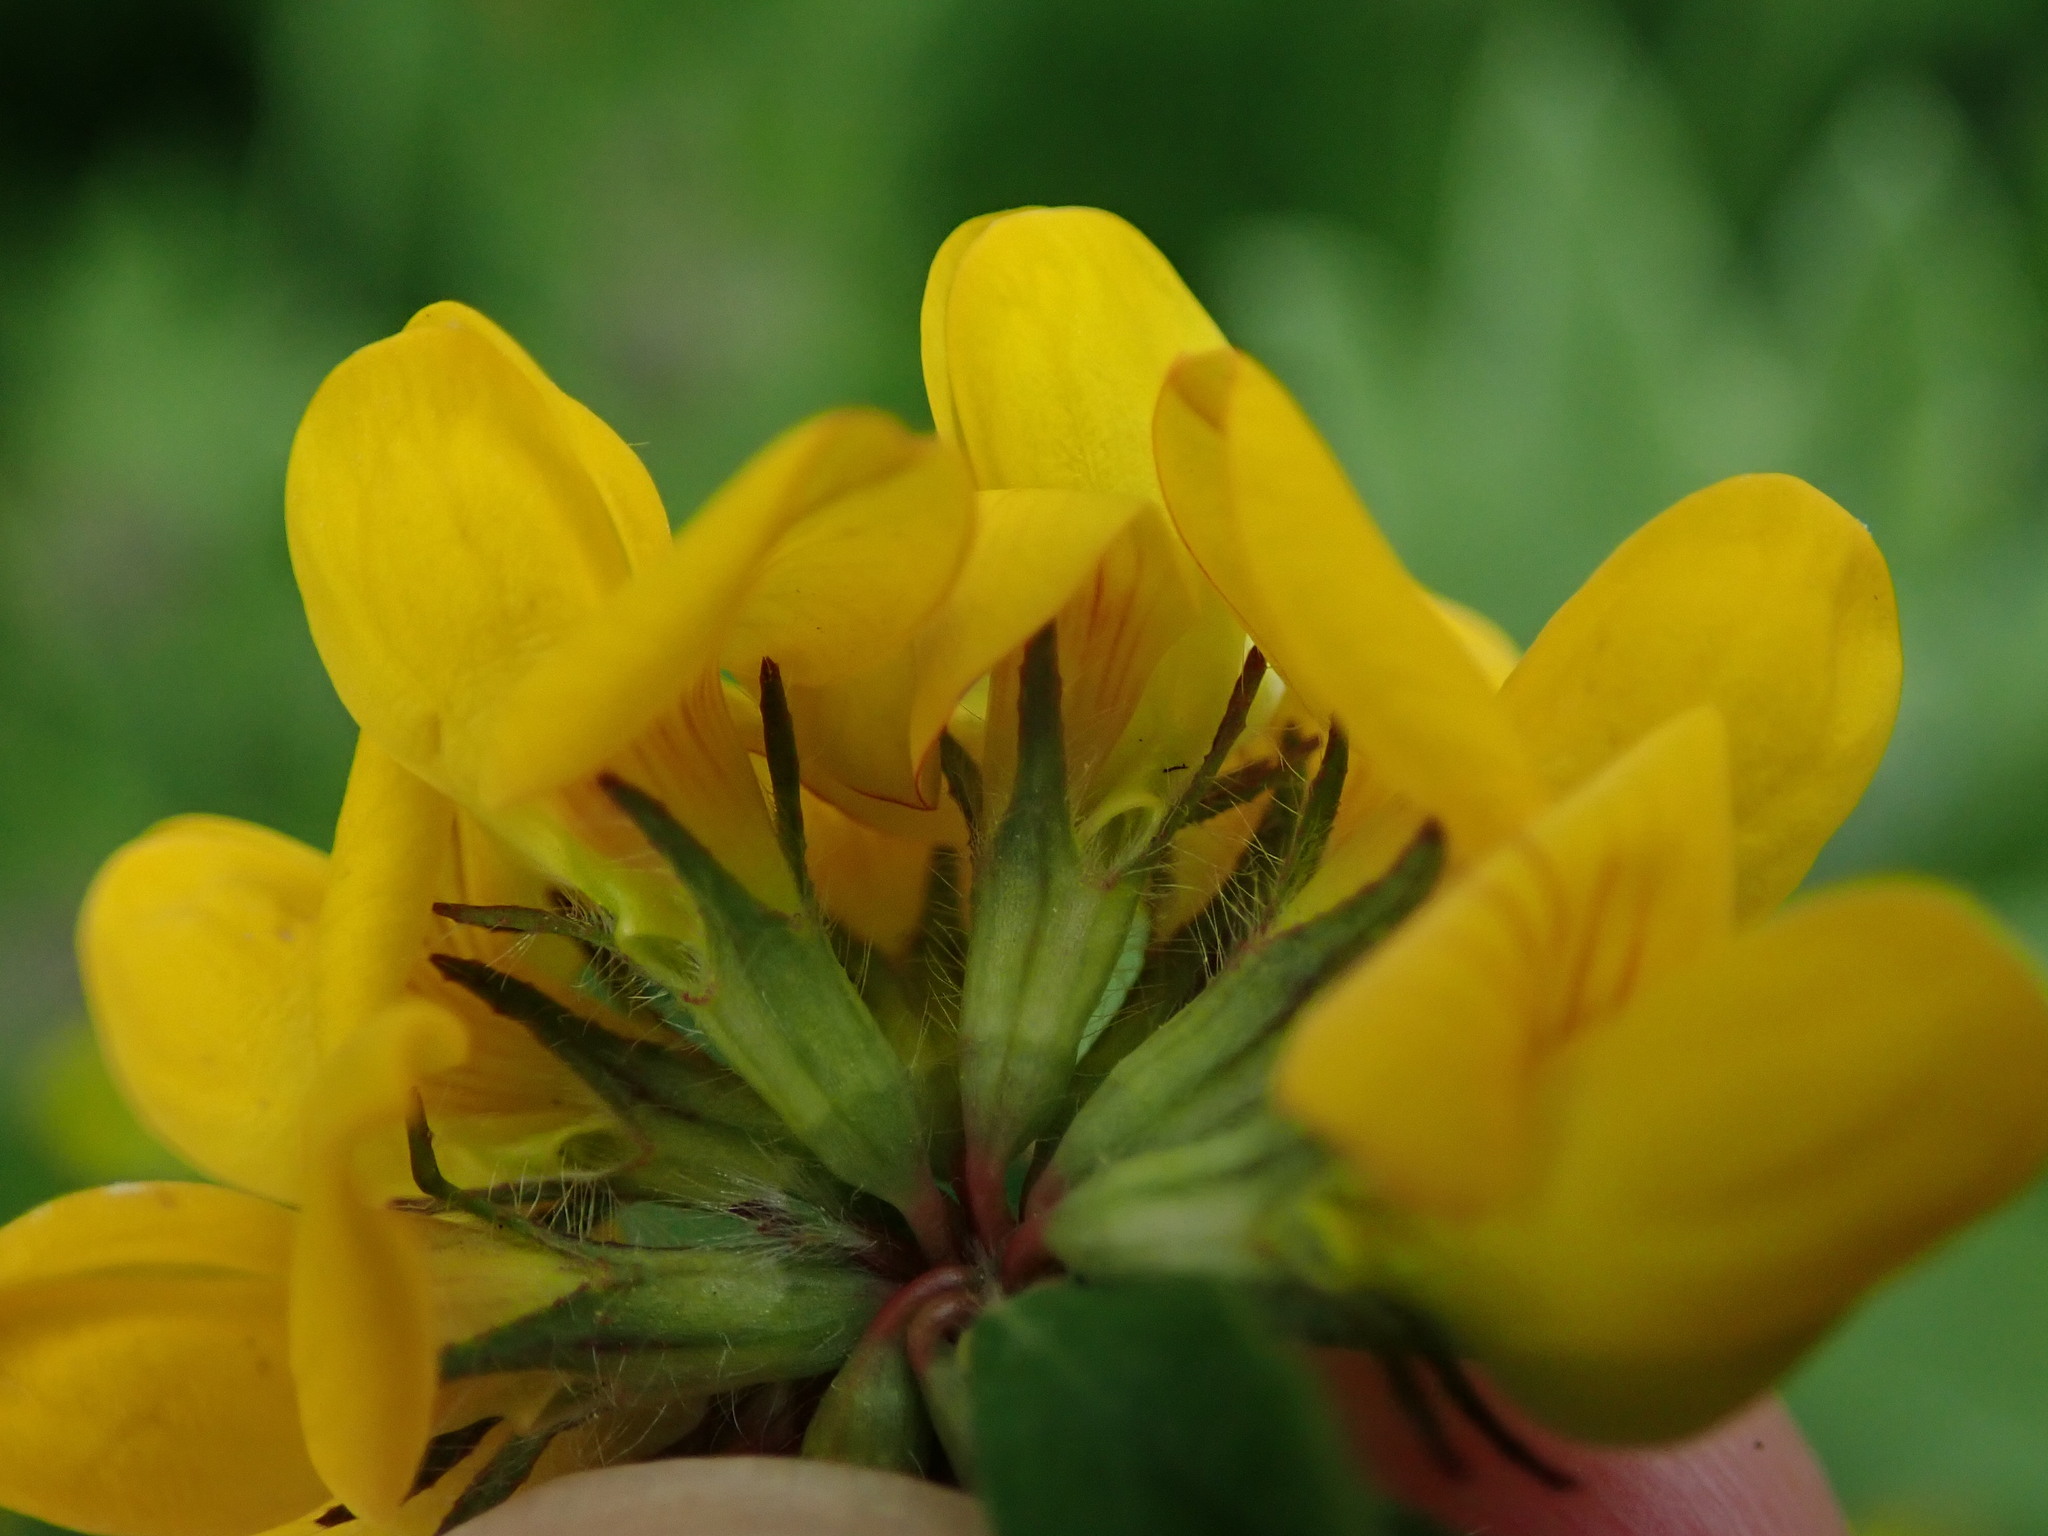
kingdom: Plantae
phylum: Tracheophyta
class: Magnoliopsida
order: Fabales
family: Fabaceae
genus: Lotus
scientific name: Lotus pedunculatus
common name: Greater birdsfoot-trefoil
